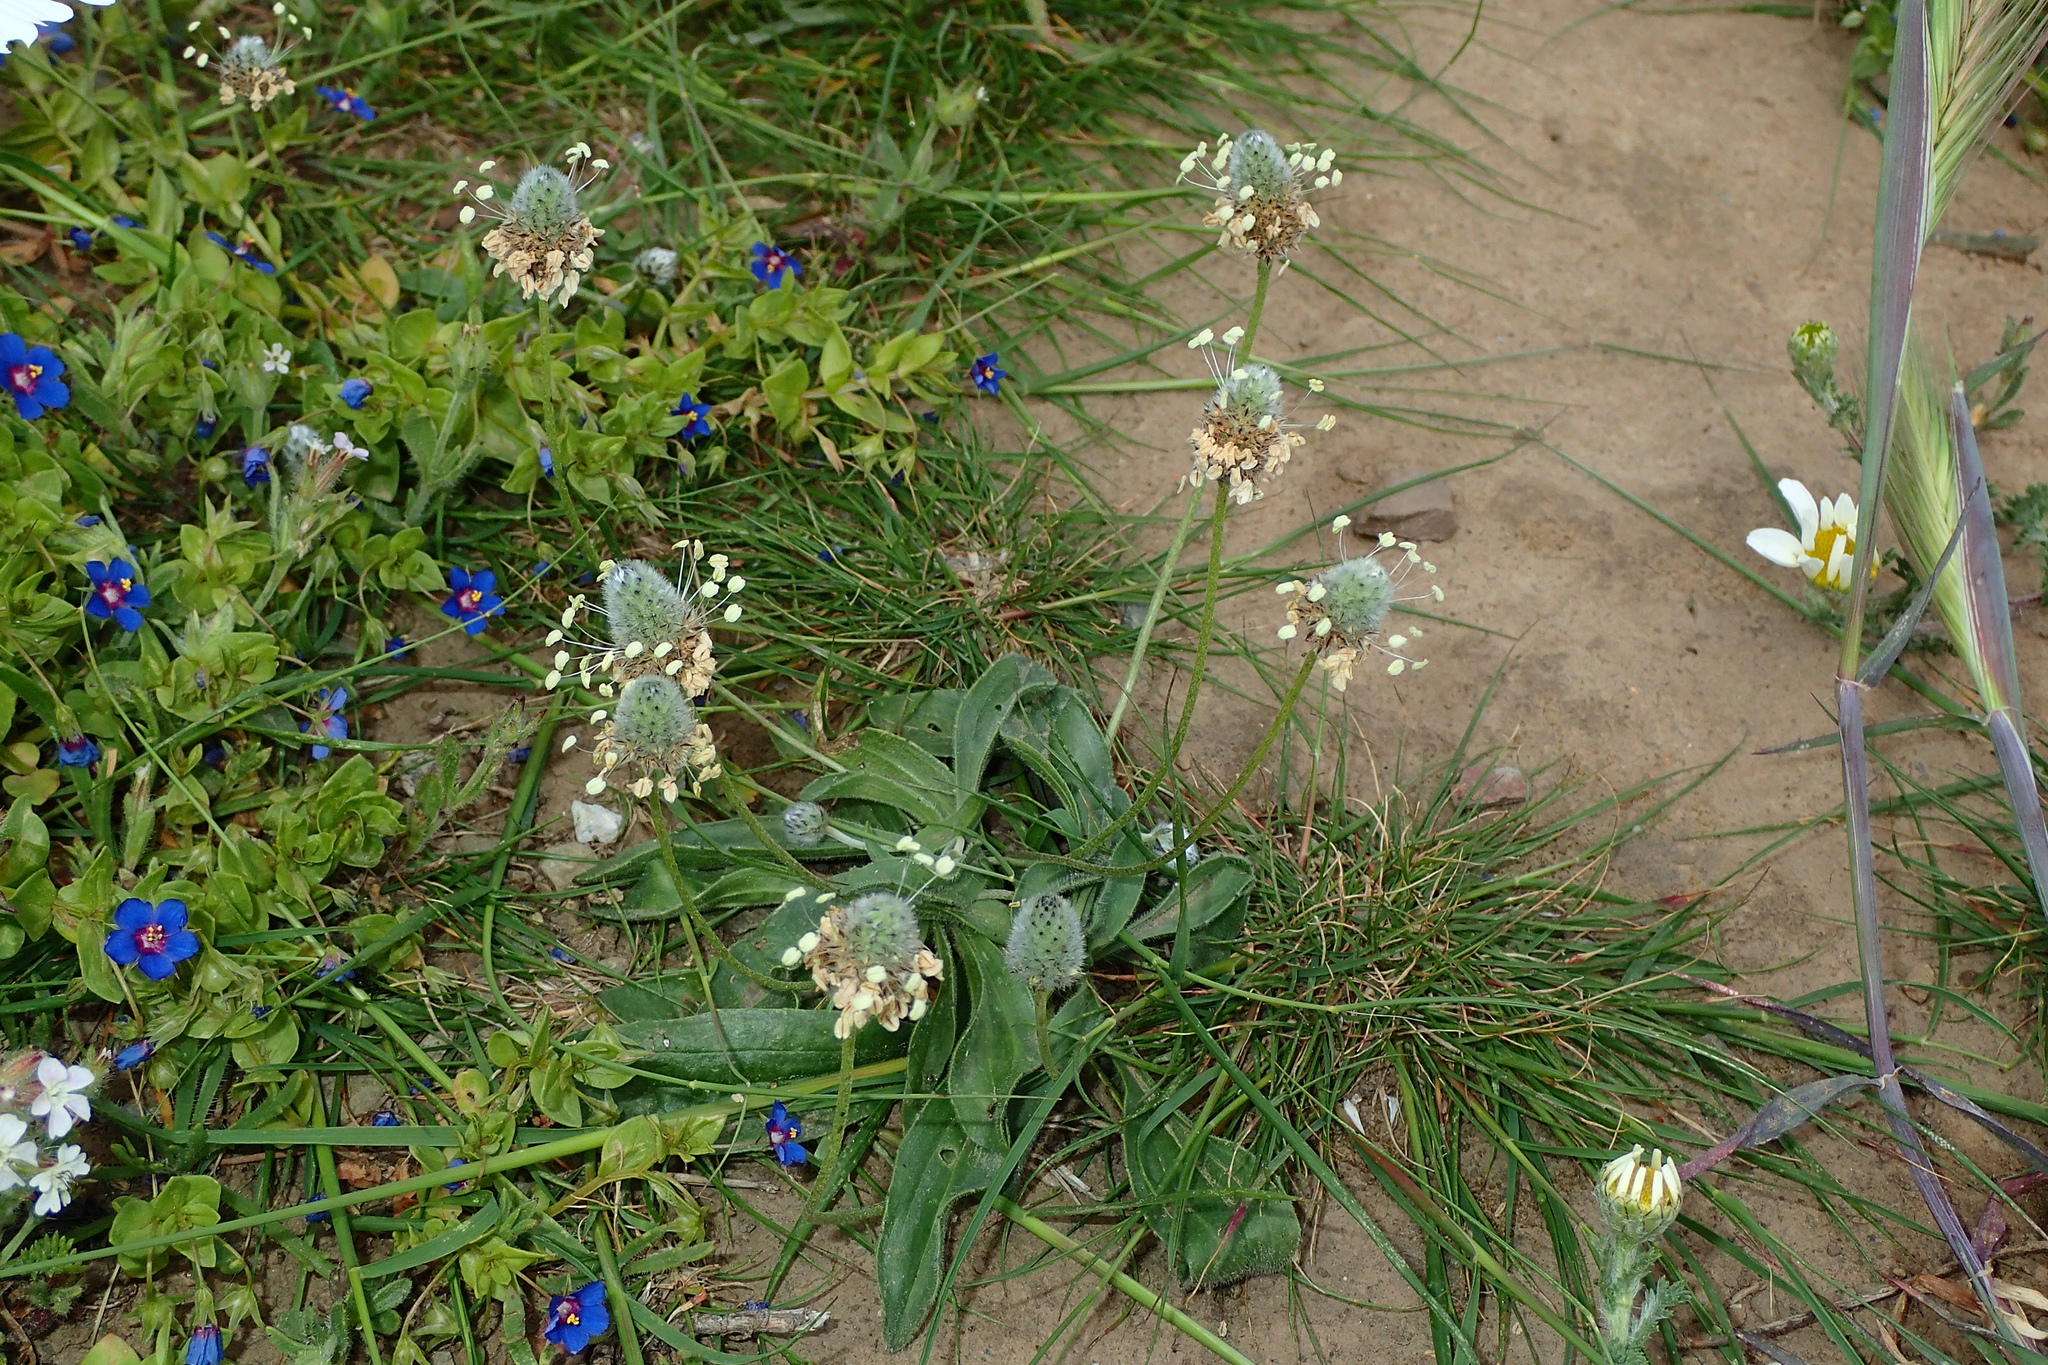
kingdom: Plantae
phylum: Tracheophyta
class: Magnoliopsida
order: Lamiales
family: Plantaginaceae
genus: Plantago
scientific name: Plantago lagopus
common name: Hare-foot plantain
